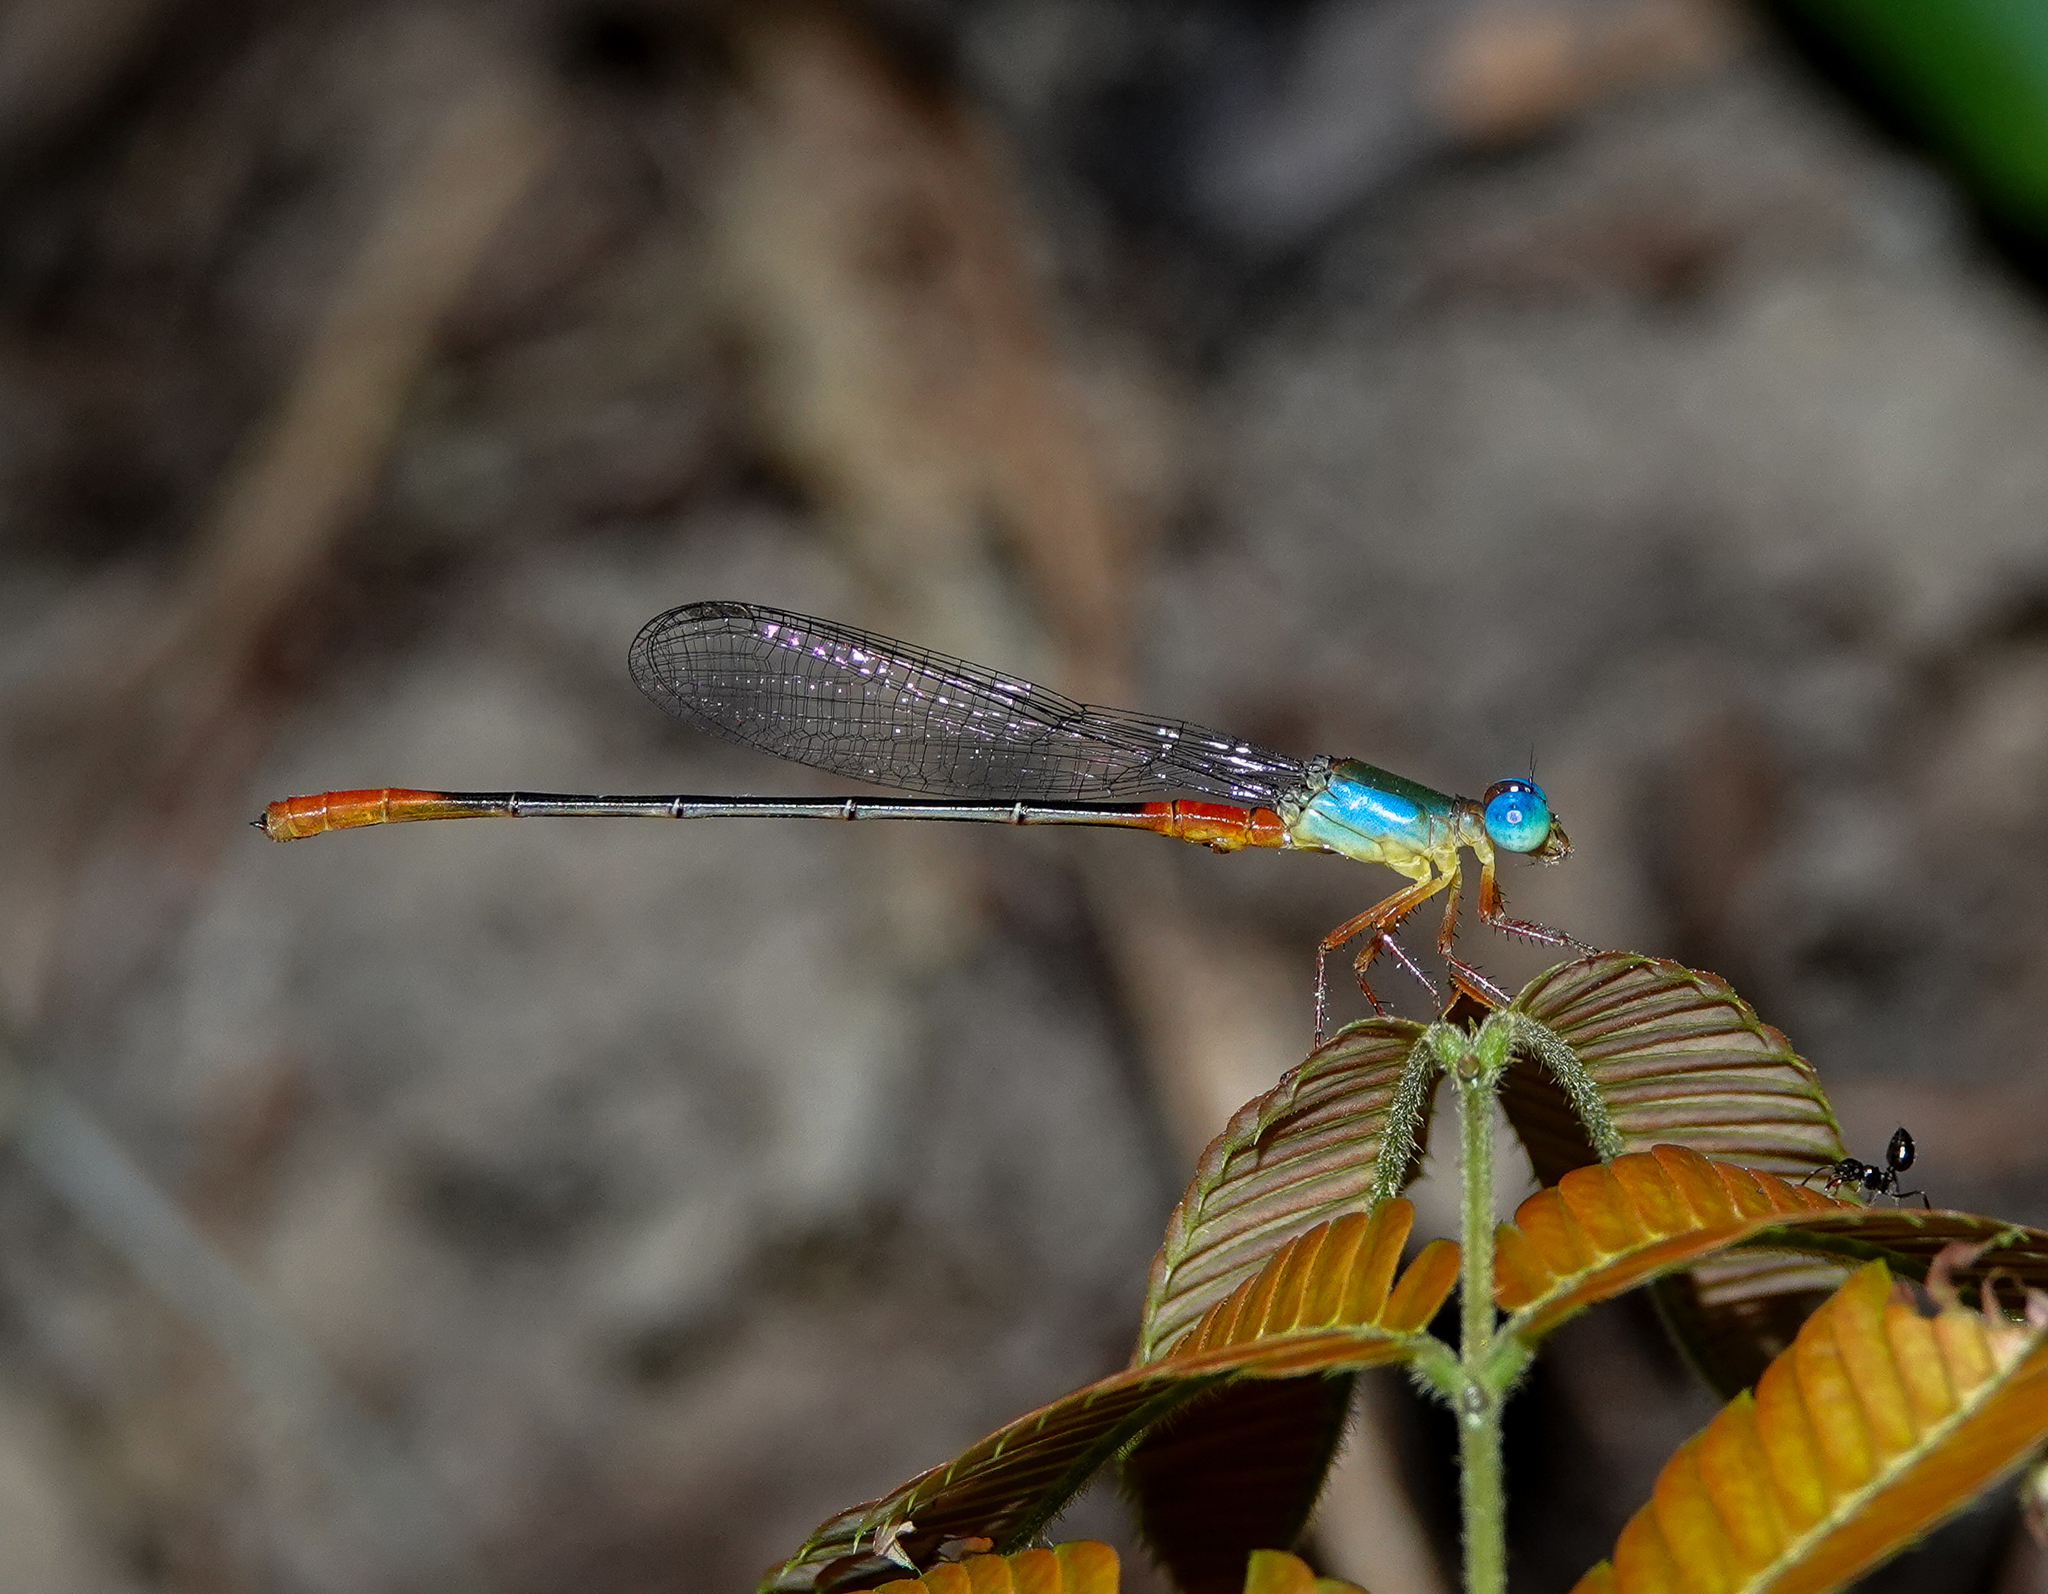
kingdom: Animalia
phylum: Arthropoda
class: Insecta
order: Odonata
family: Coenagrionidae
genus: Ceriagrion
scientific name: Ceriagrion cerinorubellum
